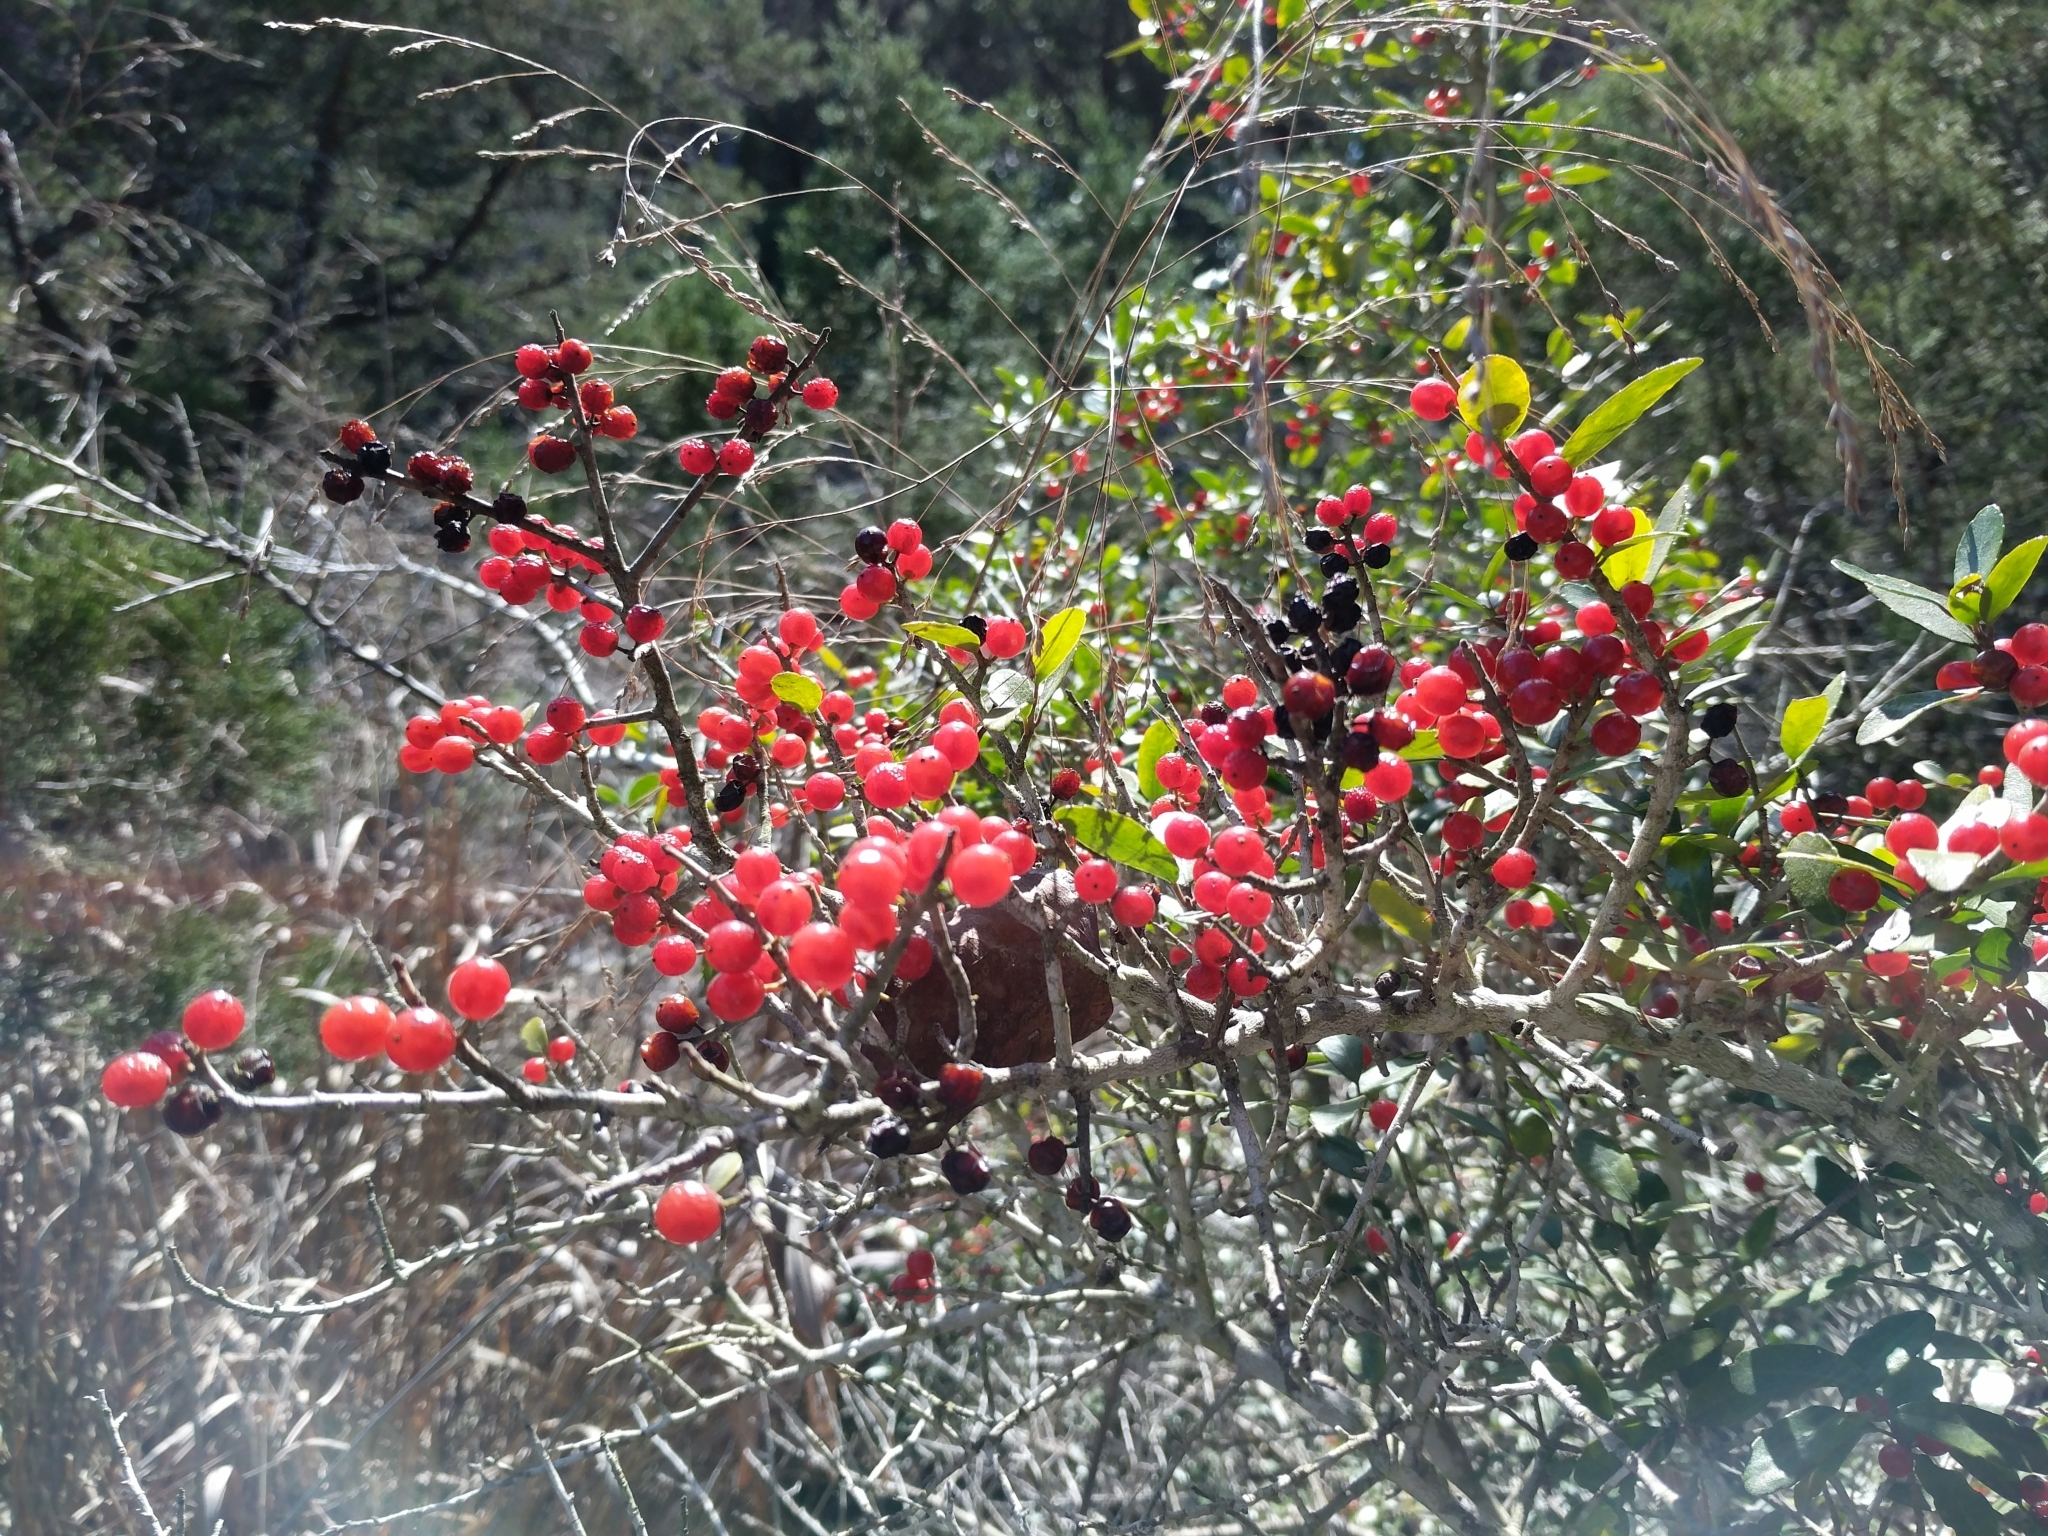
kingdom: Plantae
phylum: Tracheophyta
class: Magnoliopsida
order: Aquifoliales
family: Aquifoliaceae
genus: Ilex
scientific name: Ilex vomitoria
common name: Yaupon holly
